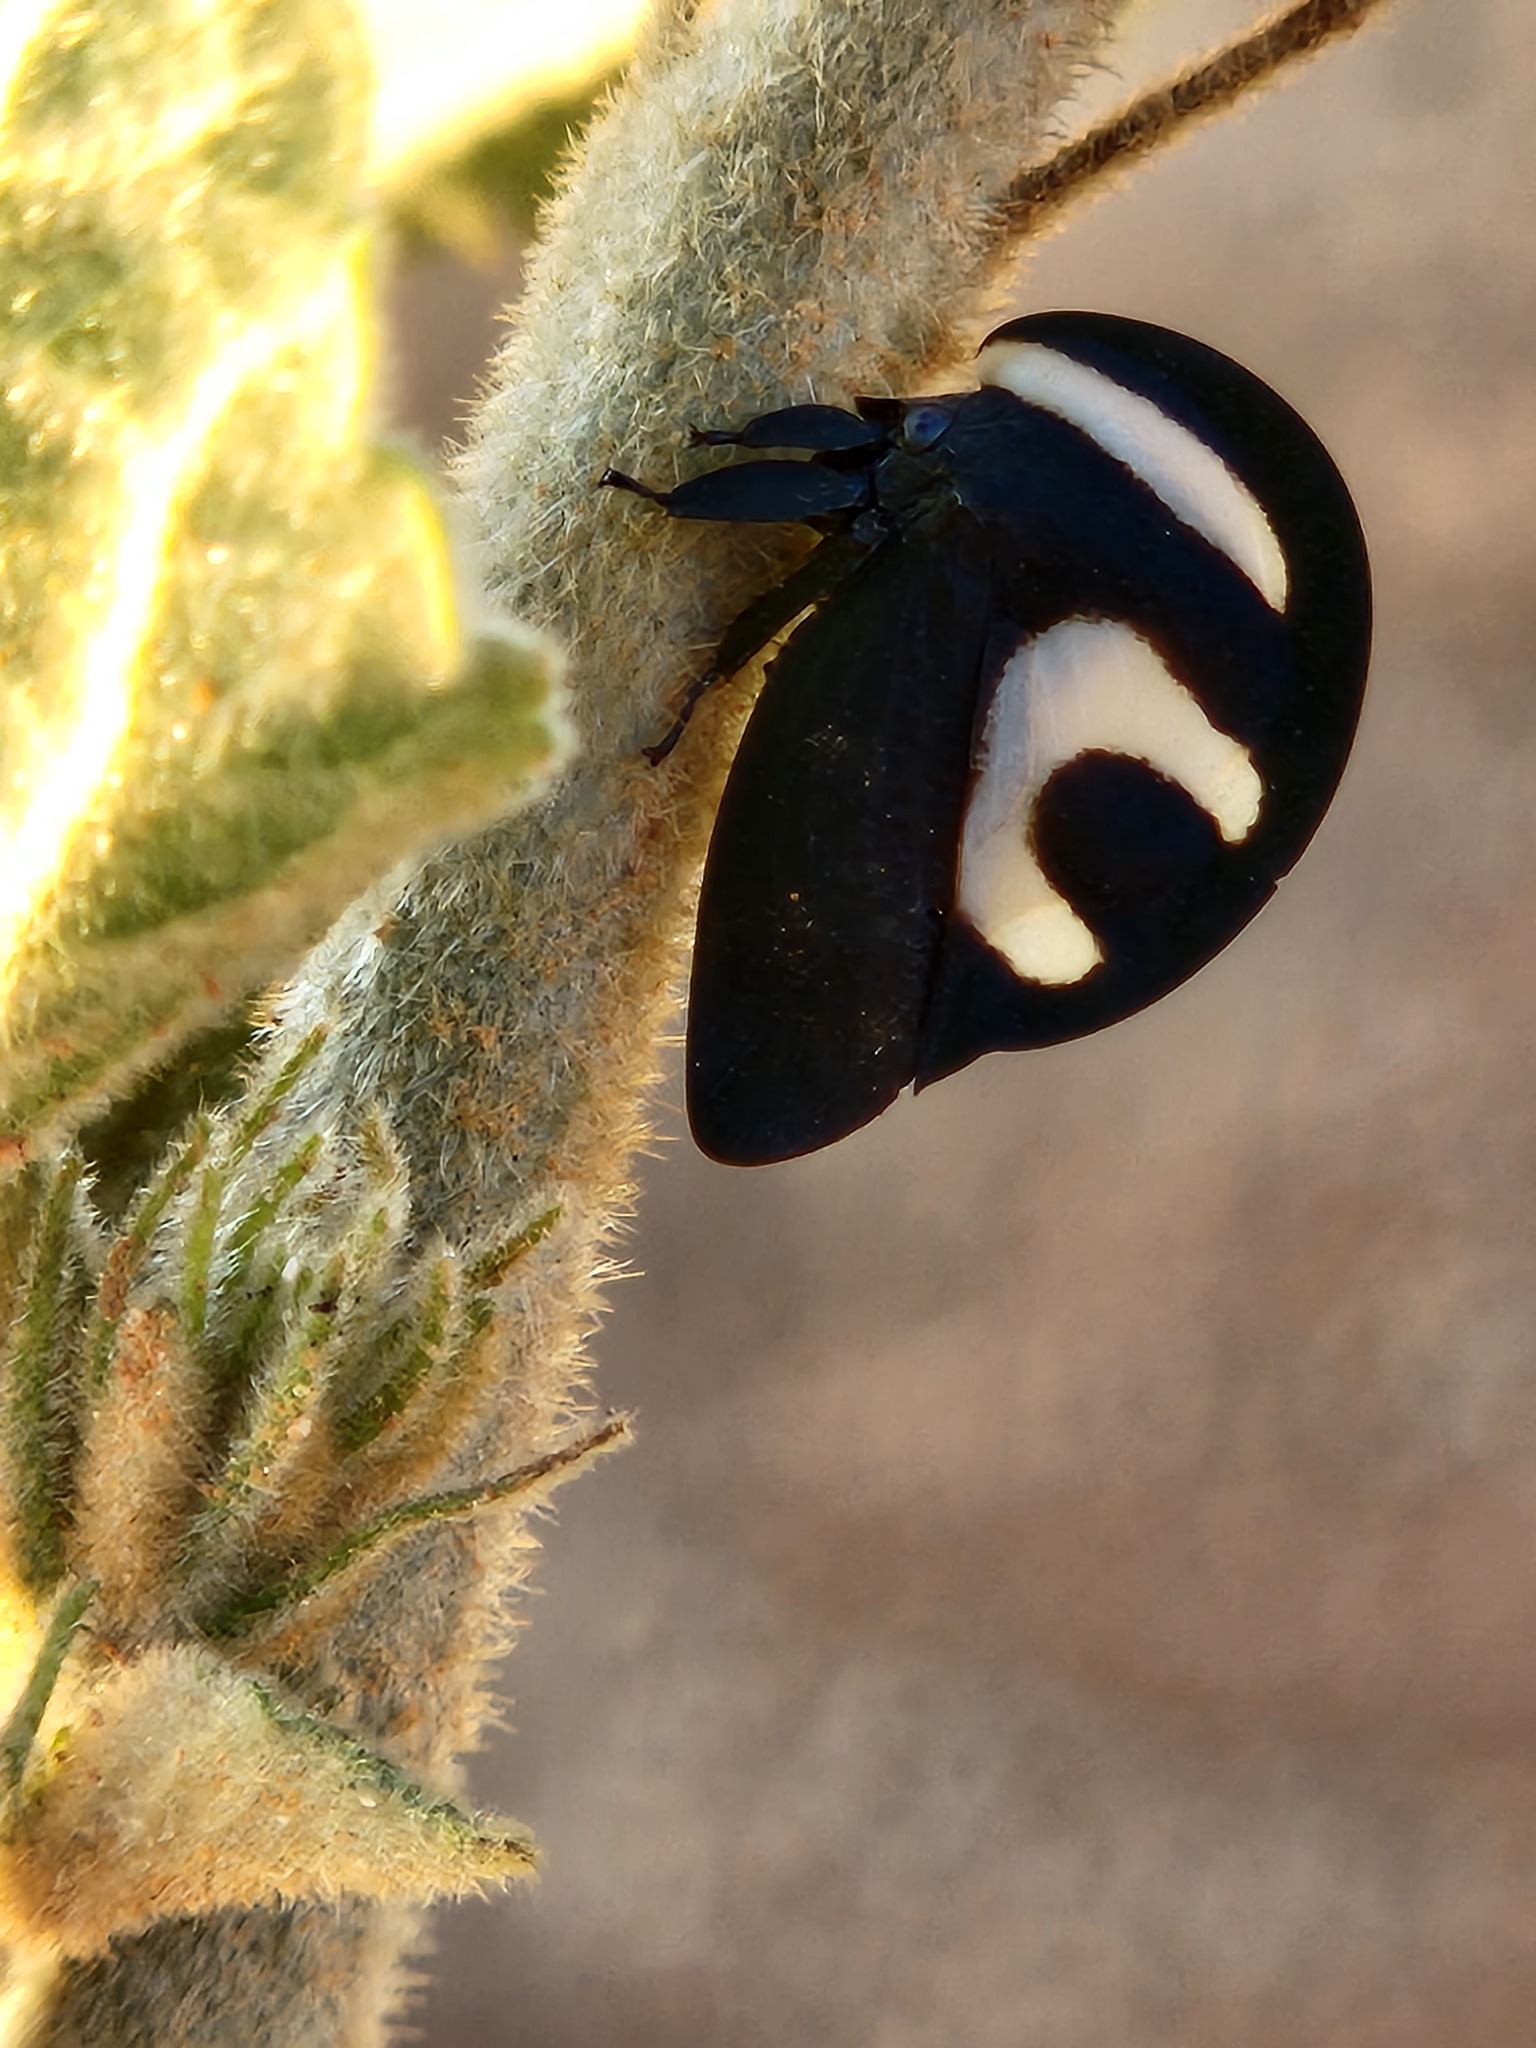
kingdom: Animalia
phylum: Arthropoda
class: Insecta
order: Hemiptera
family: Membracidae
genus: Membracis
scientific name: Membracis foliatafasciata
